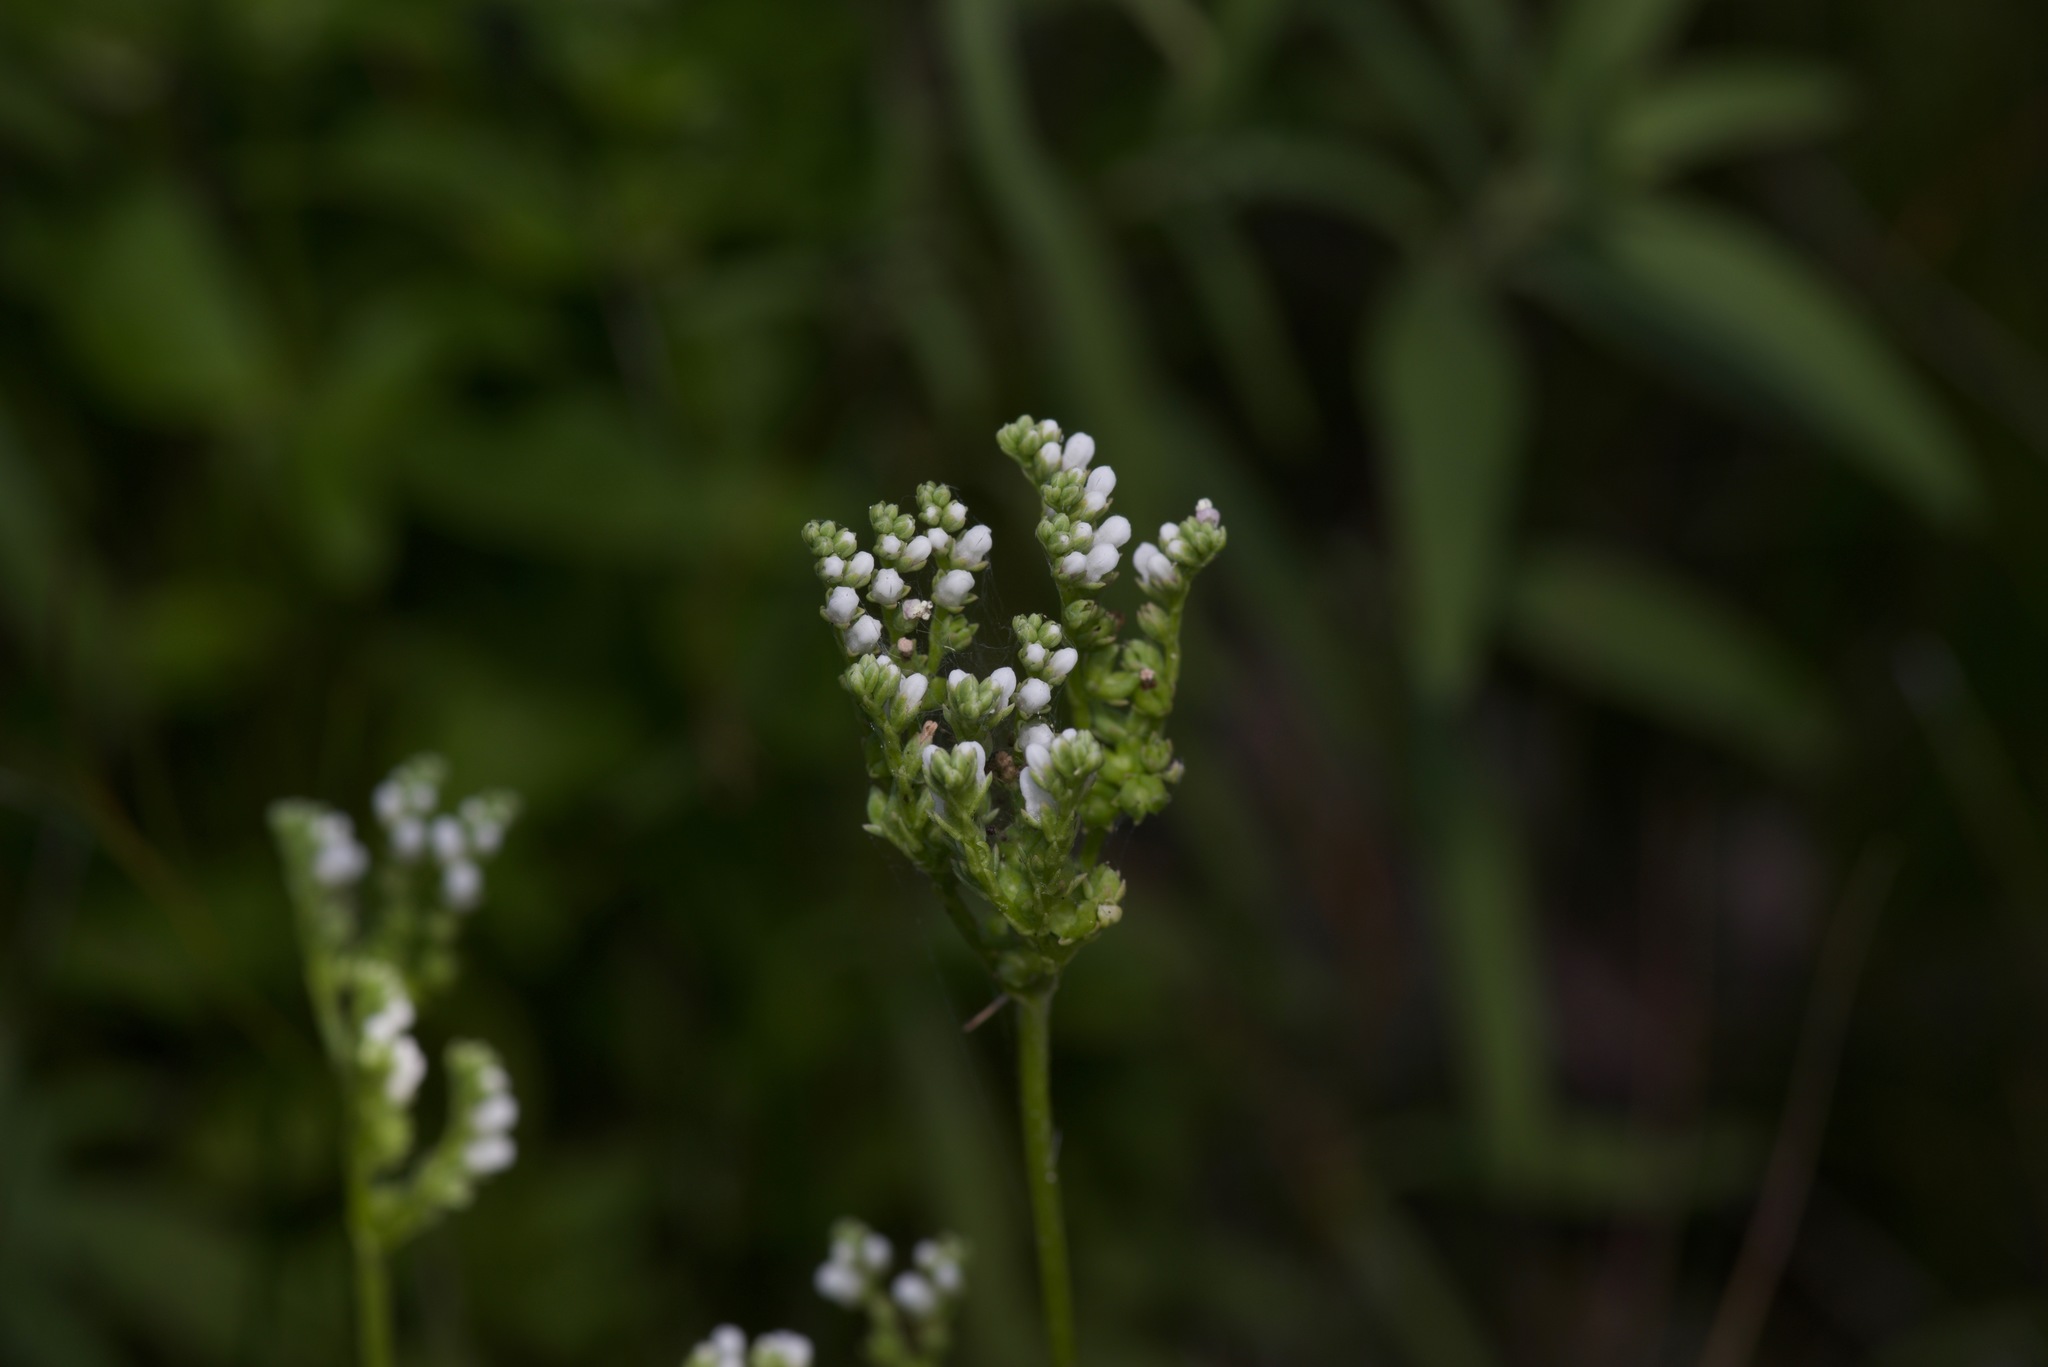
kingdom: Plantae
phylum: Tracheophyta
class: Magnoliopsida
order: Gentianales
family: Loganiaceae
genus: Mitreola
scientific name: Mitreola petiolata
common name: Lax hornpod
